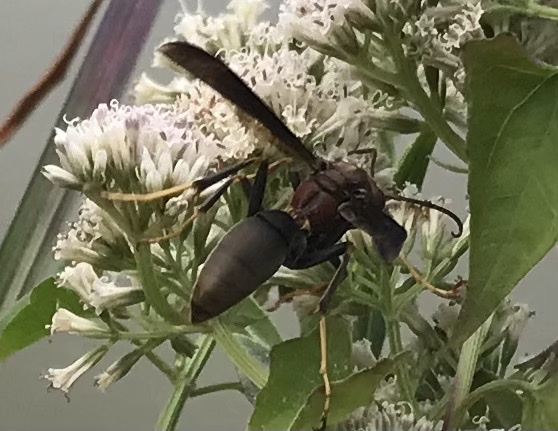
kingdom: Animalia
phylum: Arthropoda
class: Insecta
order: Hymenoptera
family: Eumenidae
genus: Polistes
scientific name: Polistes metricus
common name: Metric paper wasp
